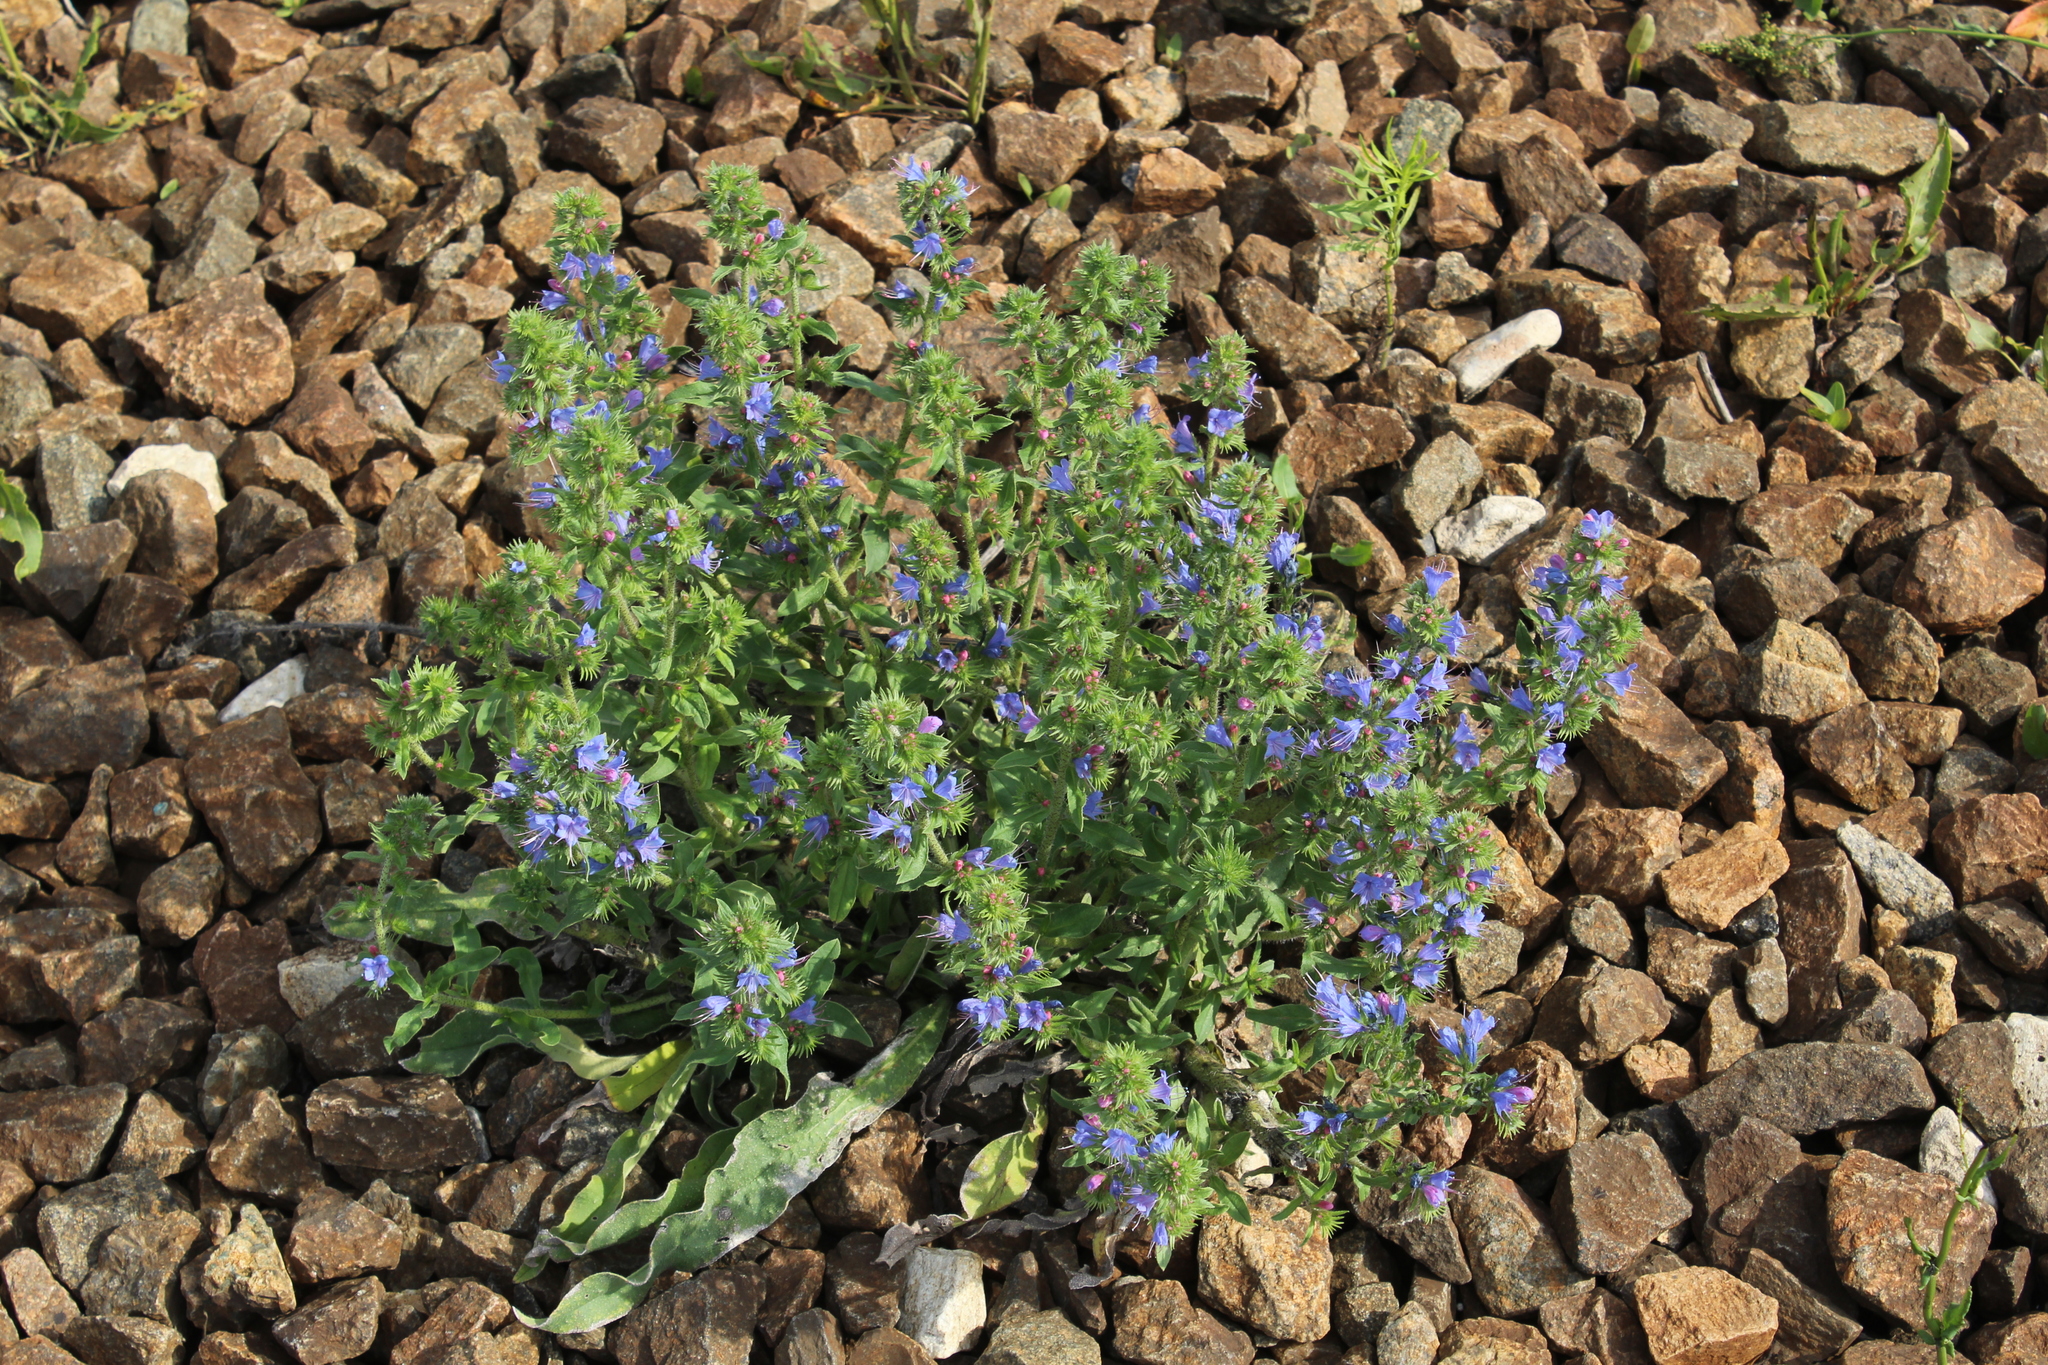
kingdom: Plantae
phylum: Tracheophyta
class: Magnoliopsida
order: Boraginales
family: Boraginaceae
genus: Echium
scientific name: Echium vulgare
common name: Common viper's bugloss
